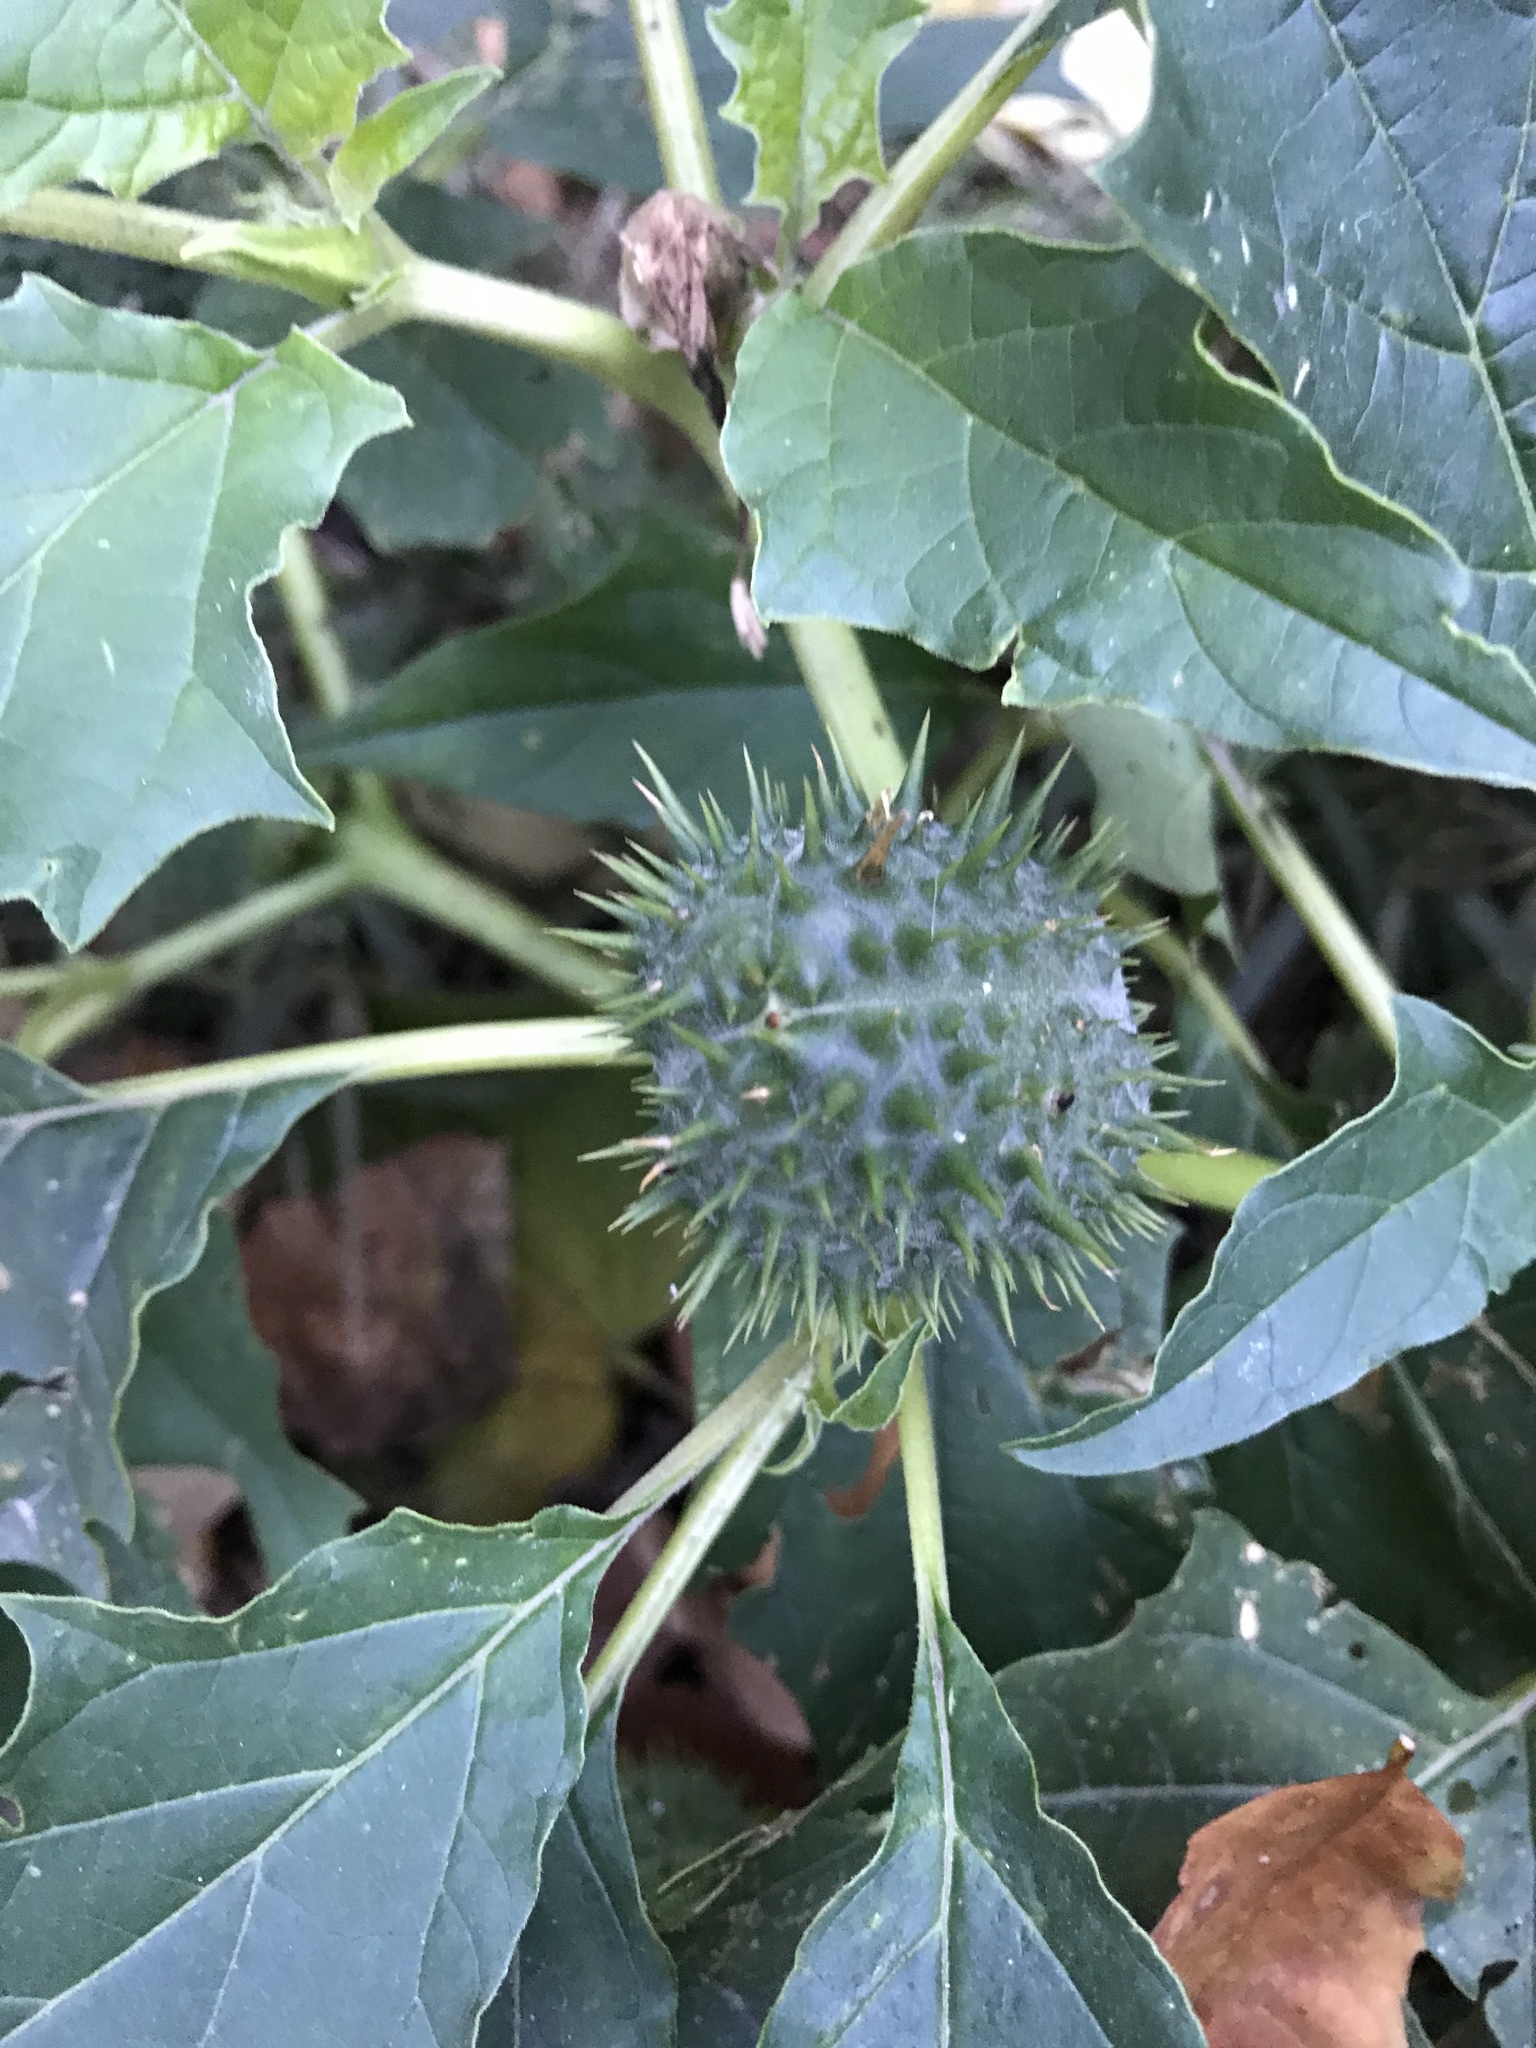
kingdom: Plantae
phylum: Tracheophyta
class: Magnoliopsida
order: Solanales
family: Solanaceae
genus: Datura
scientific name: Datura stramonium
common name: Thorn-apple
